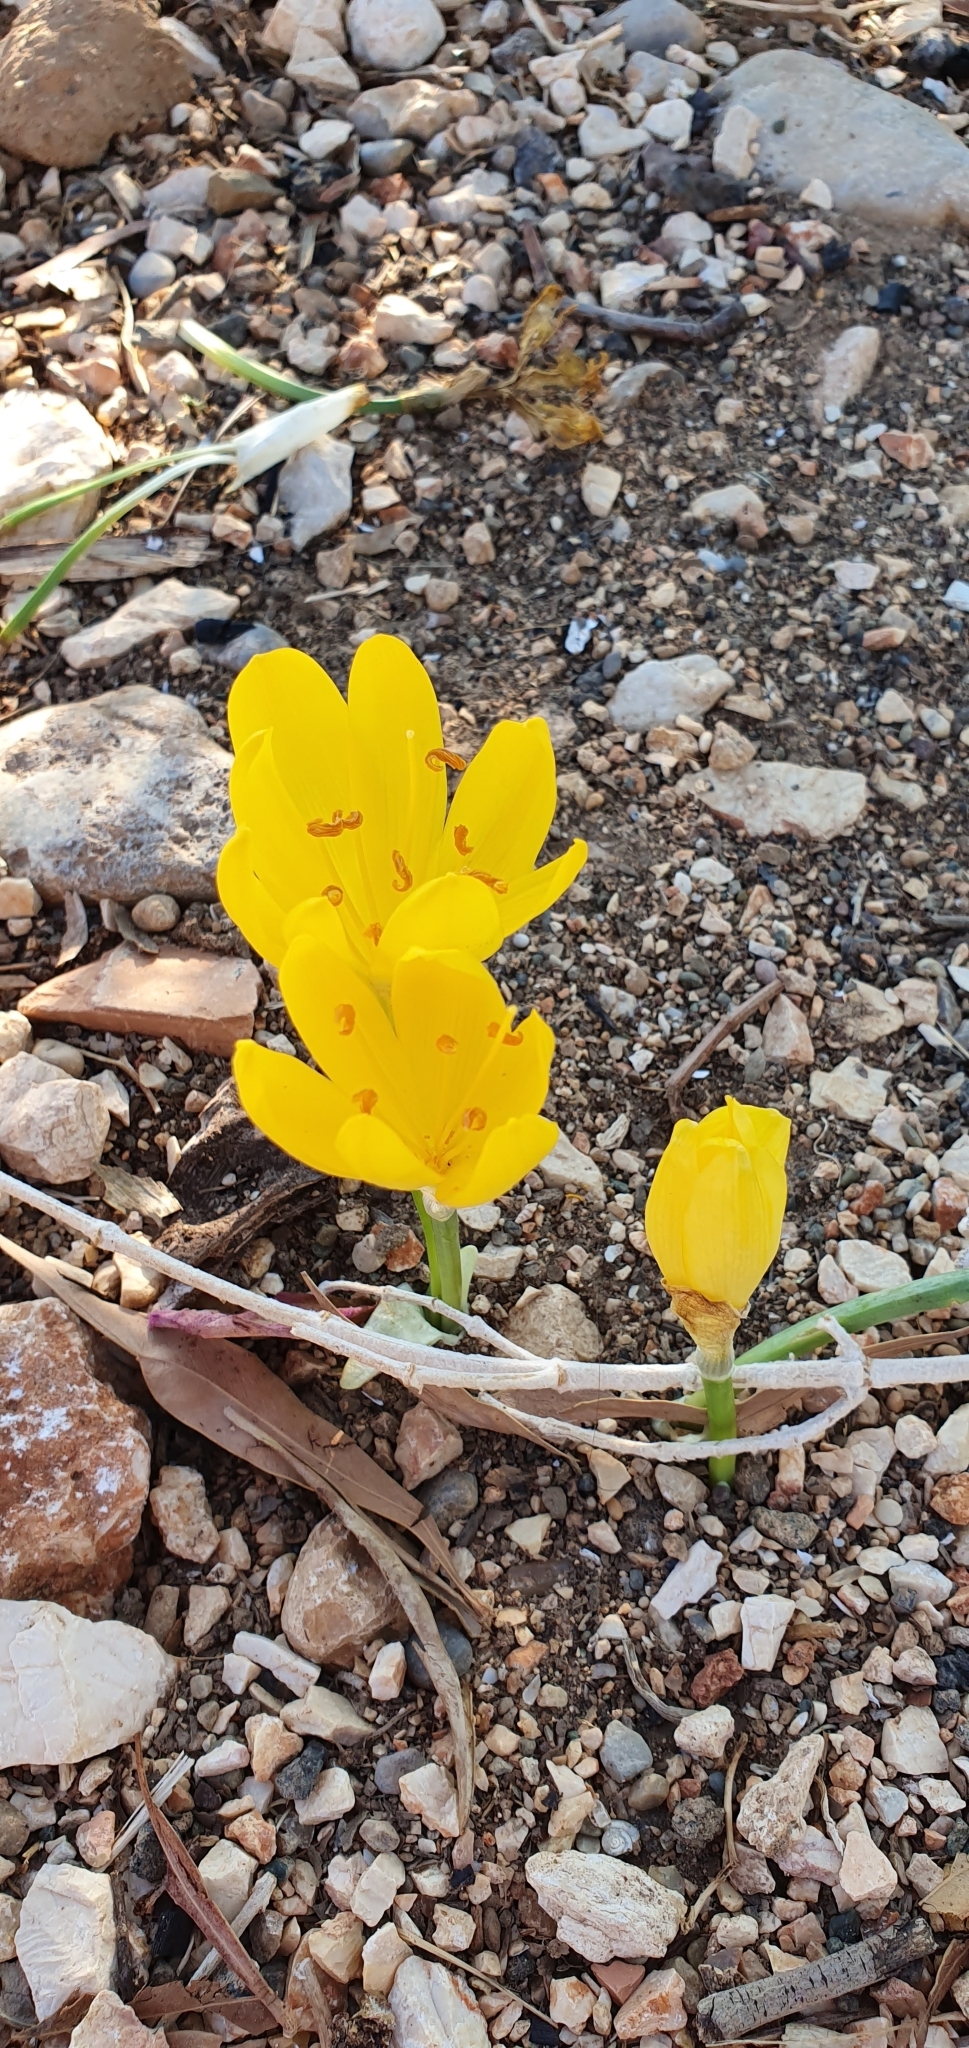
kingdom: Plantae
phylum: Tracheophyta
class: Liliopsida
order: Asparagales
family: Amaryllidaceae
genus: Sternbergia
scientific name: Sternbergia lutea
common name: Winter daffodil
